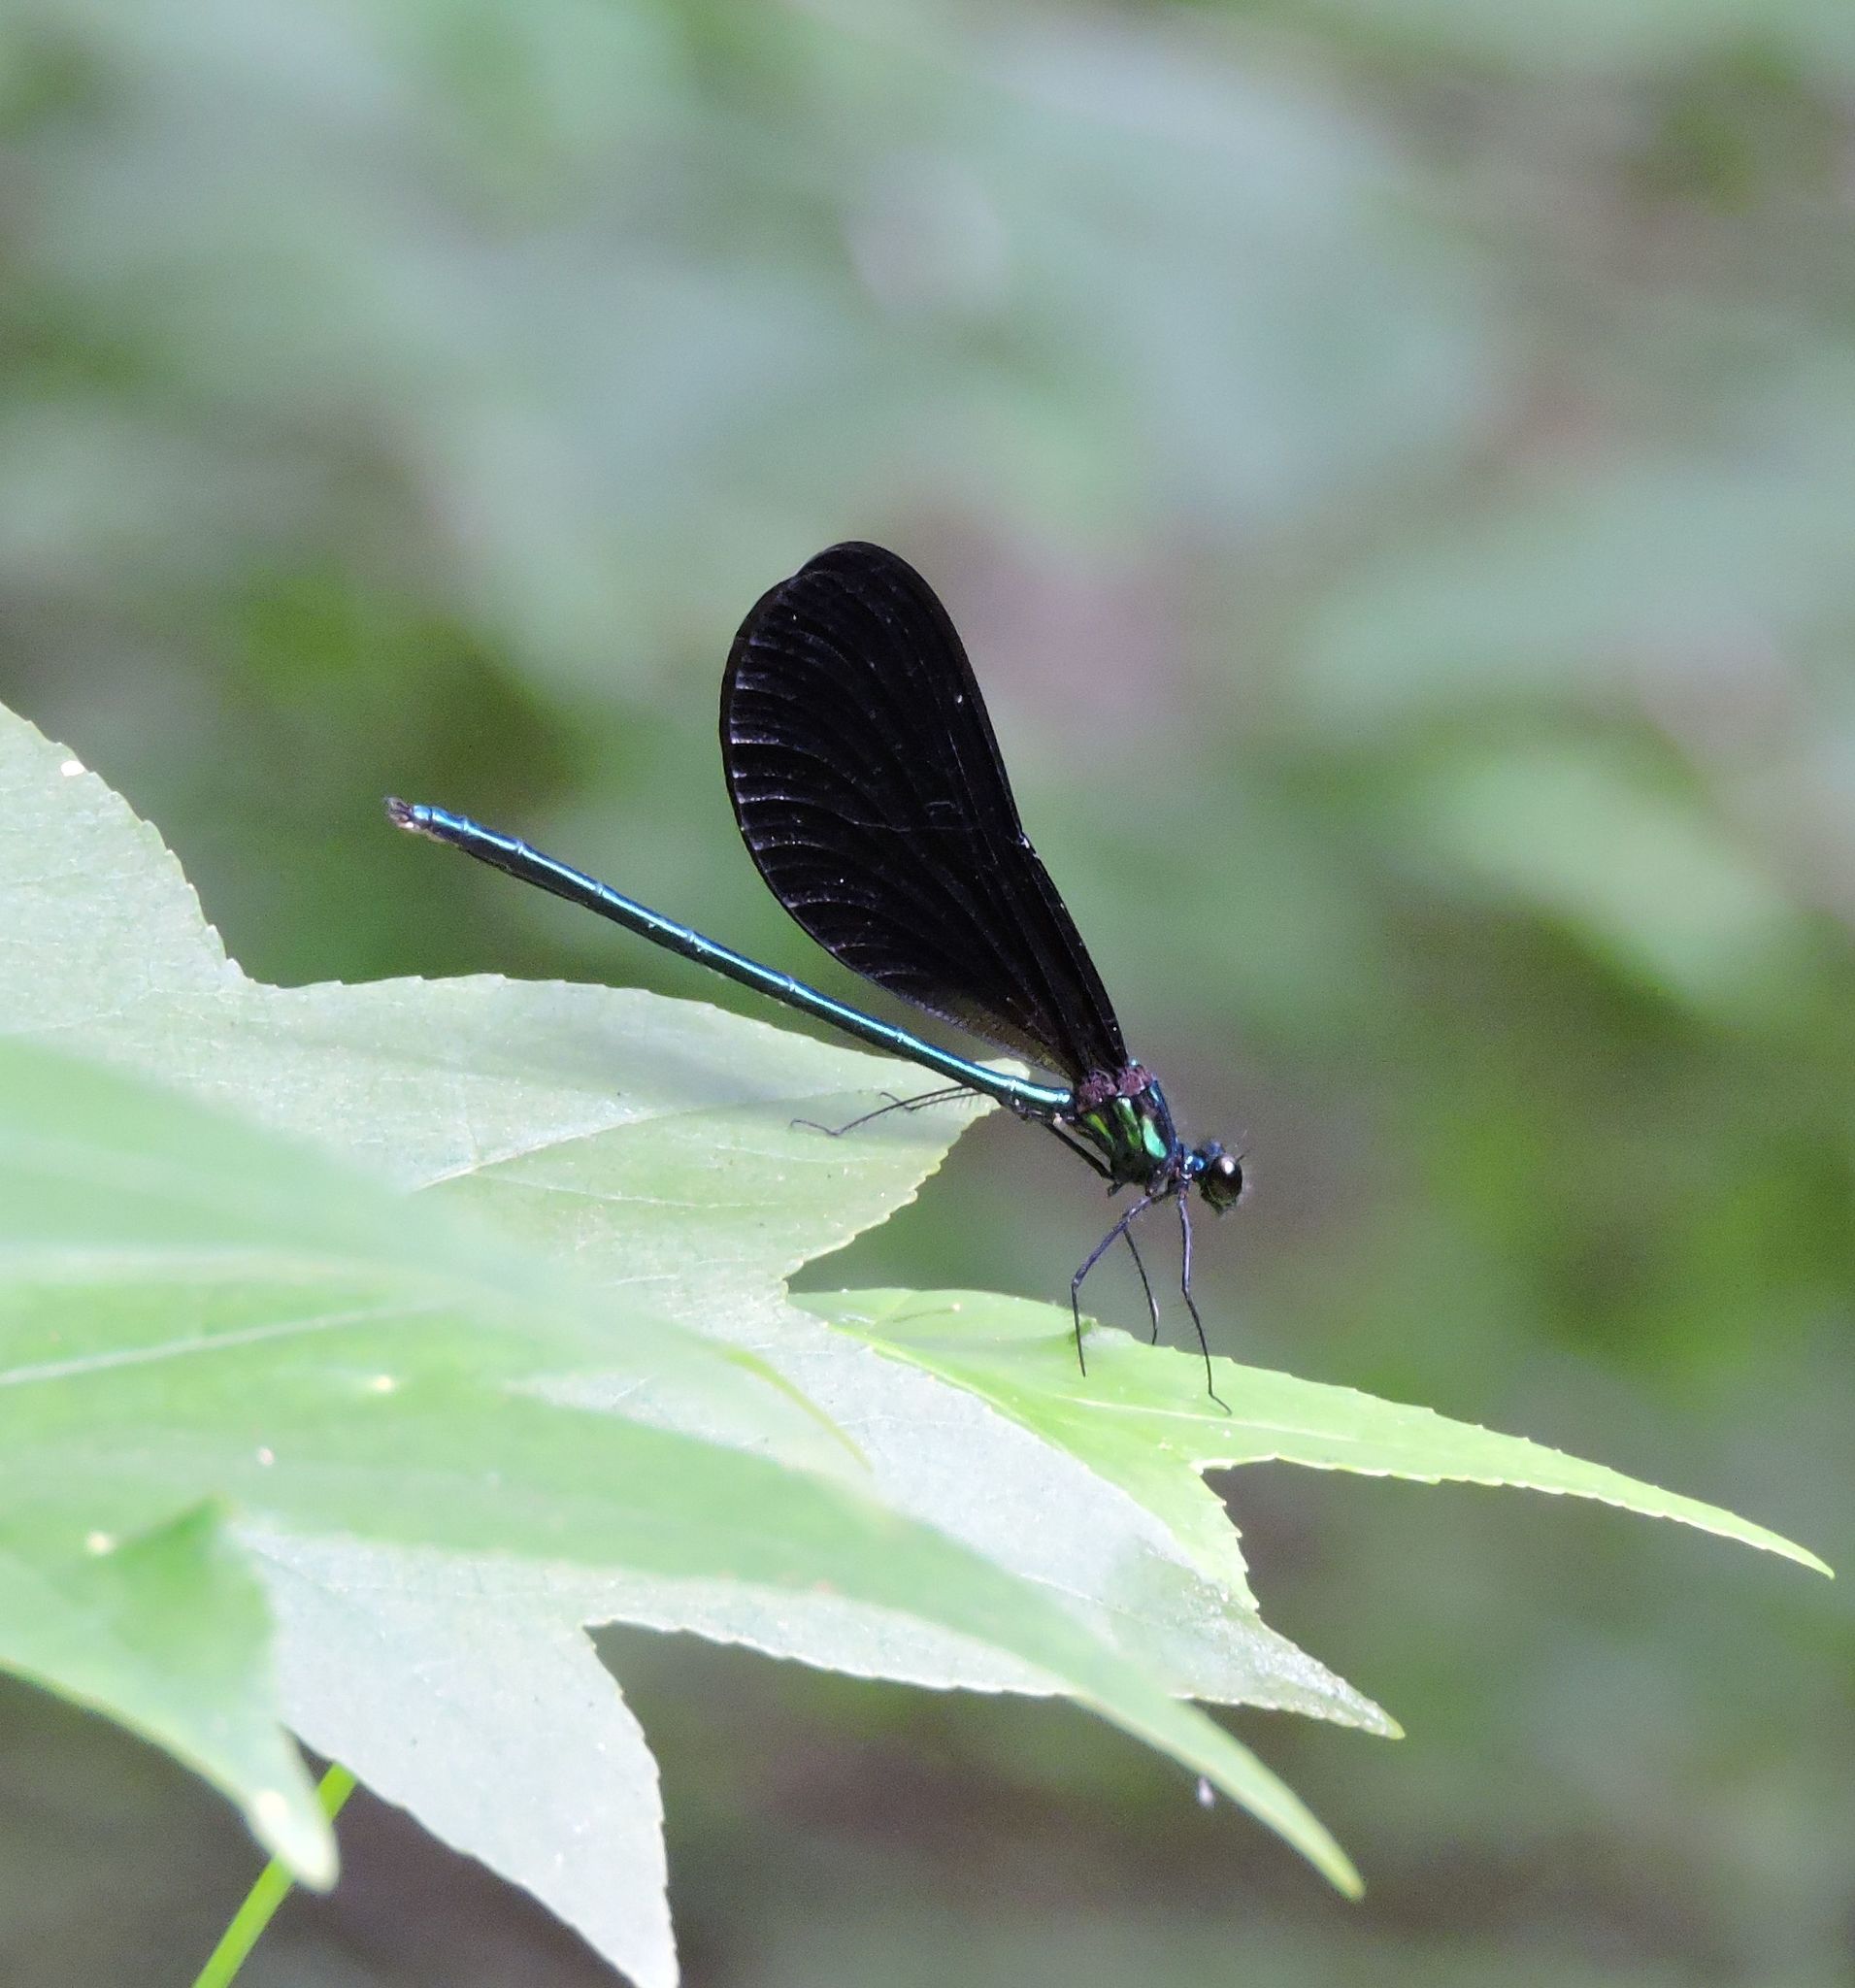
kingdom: Animalia
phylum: Arthropoda
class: Insecta
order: Odonata
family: Calopterygidae
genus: Calopteryx
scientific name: Calopteryx maculata
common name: Ebony jewelwing
